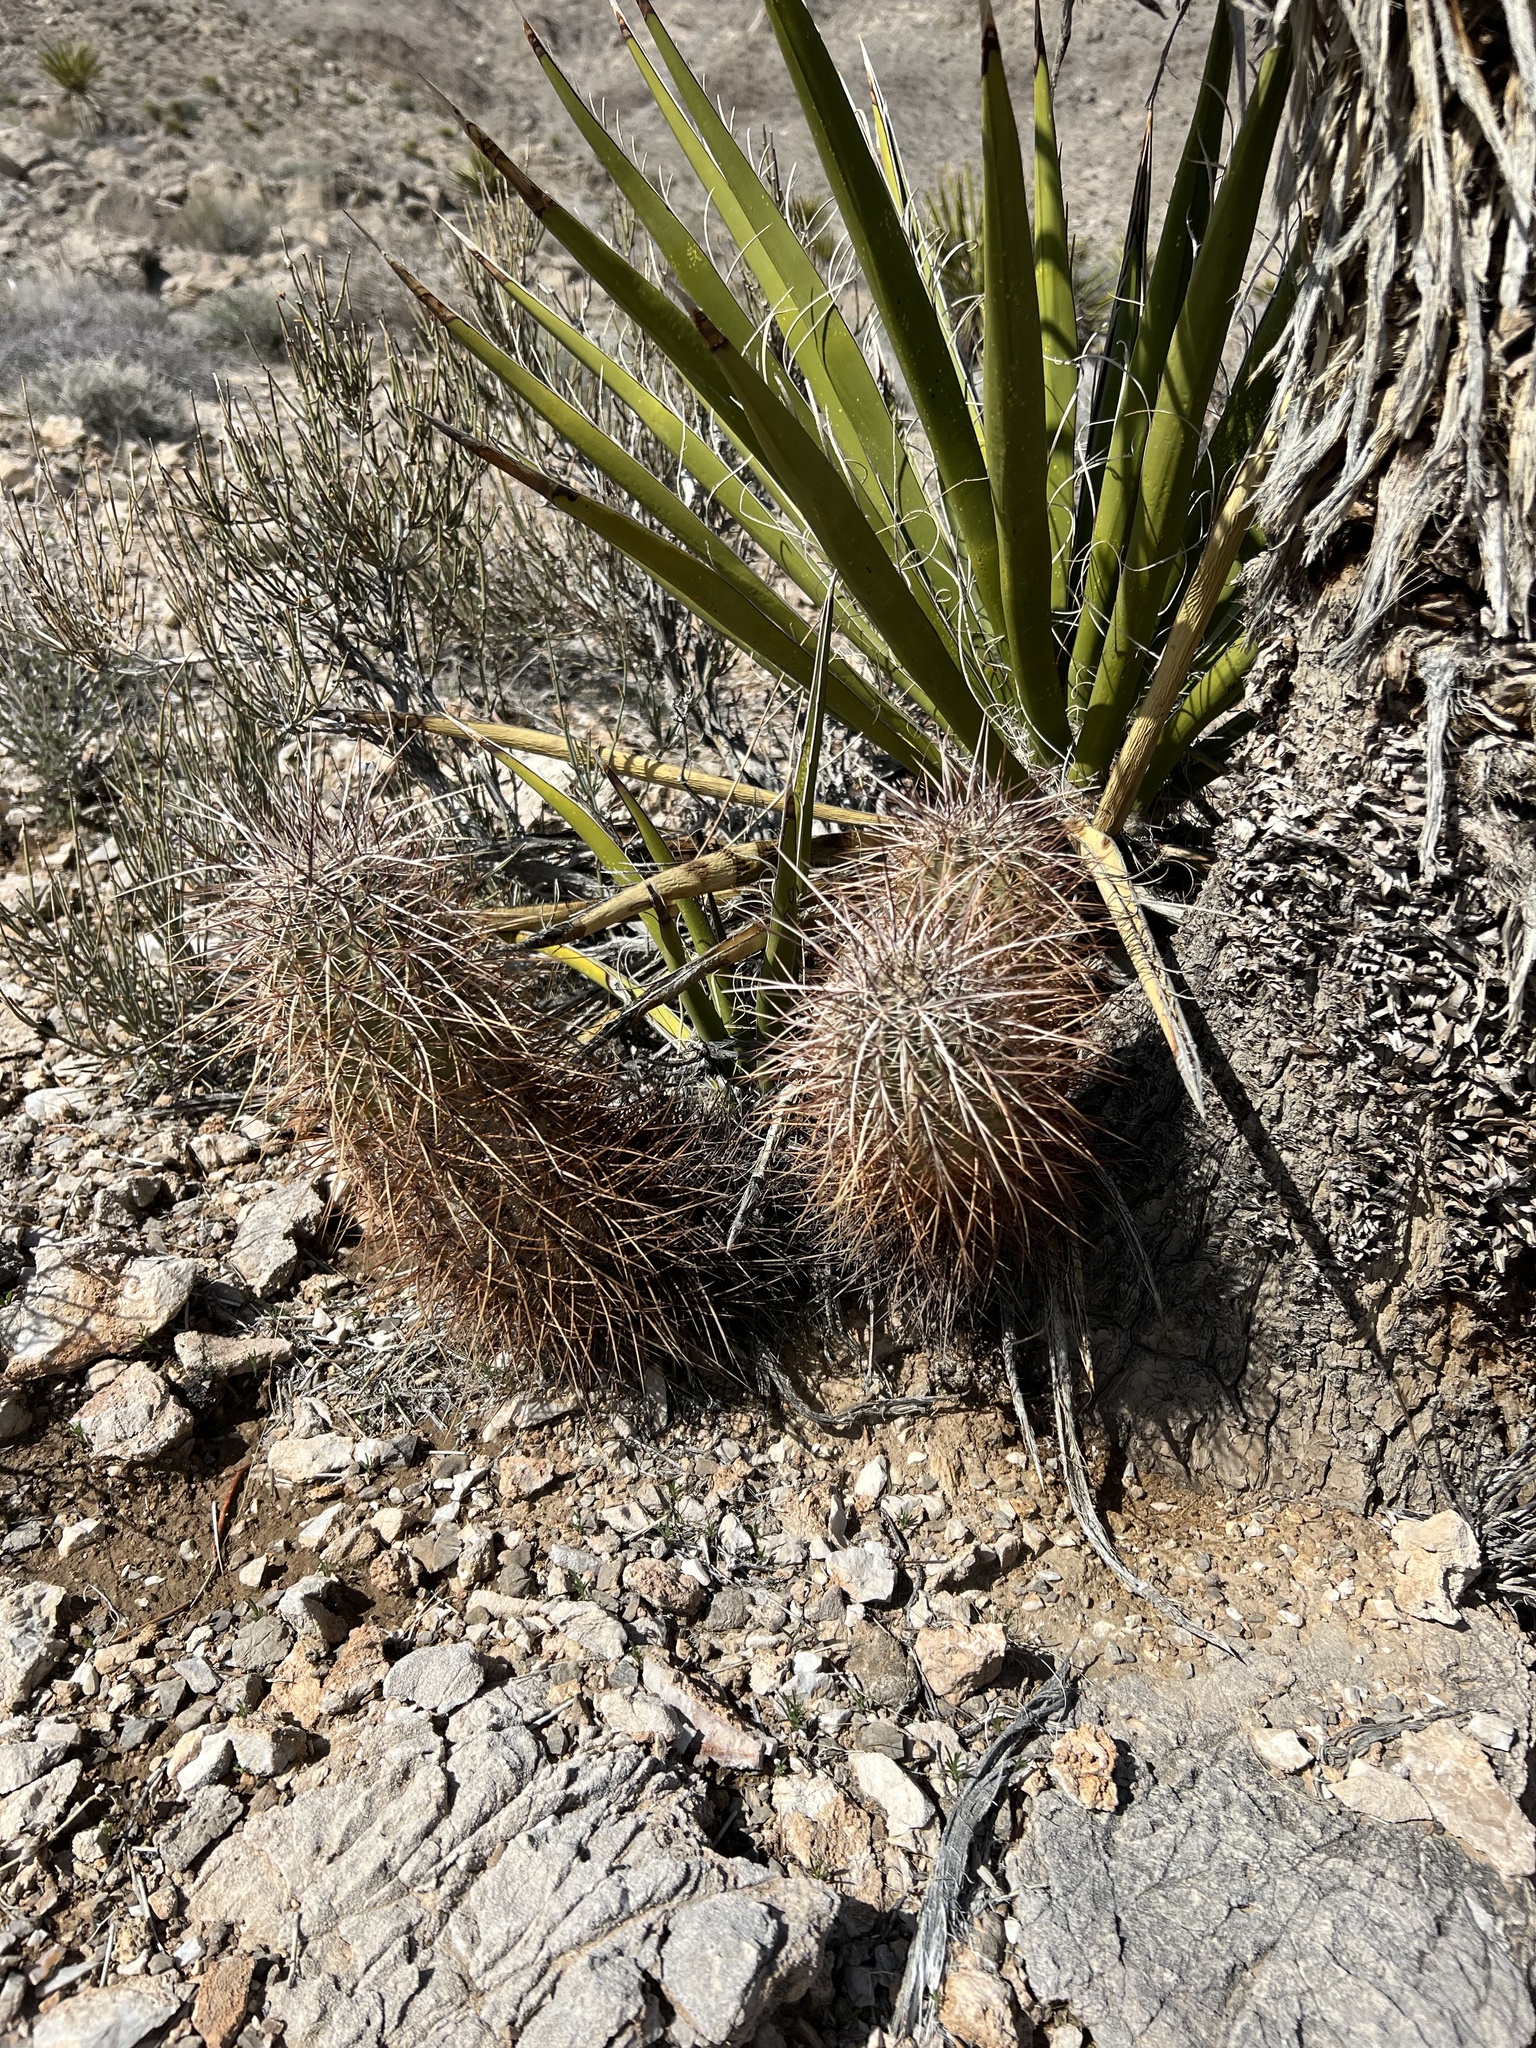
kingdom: Plantae
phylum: Tracheophyta
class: Magnoliopsida
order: Caryophyllales
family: Cactaceae
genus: Echinocereus
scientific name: Echinocereus engelmannii
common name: Engelmann's hedgehog cactus
